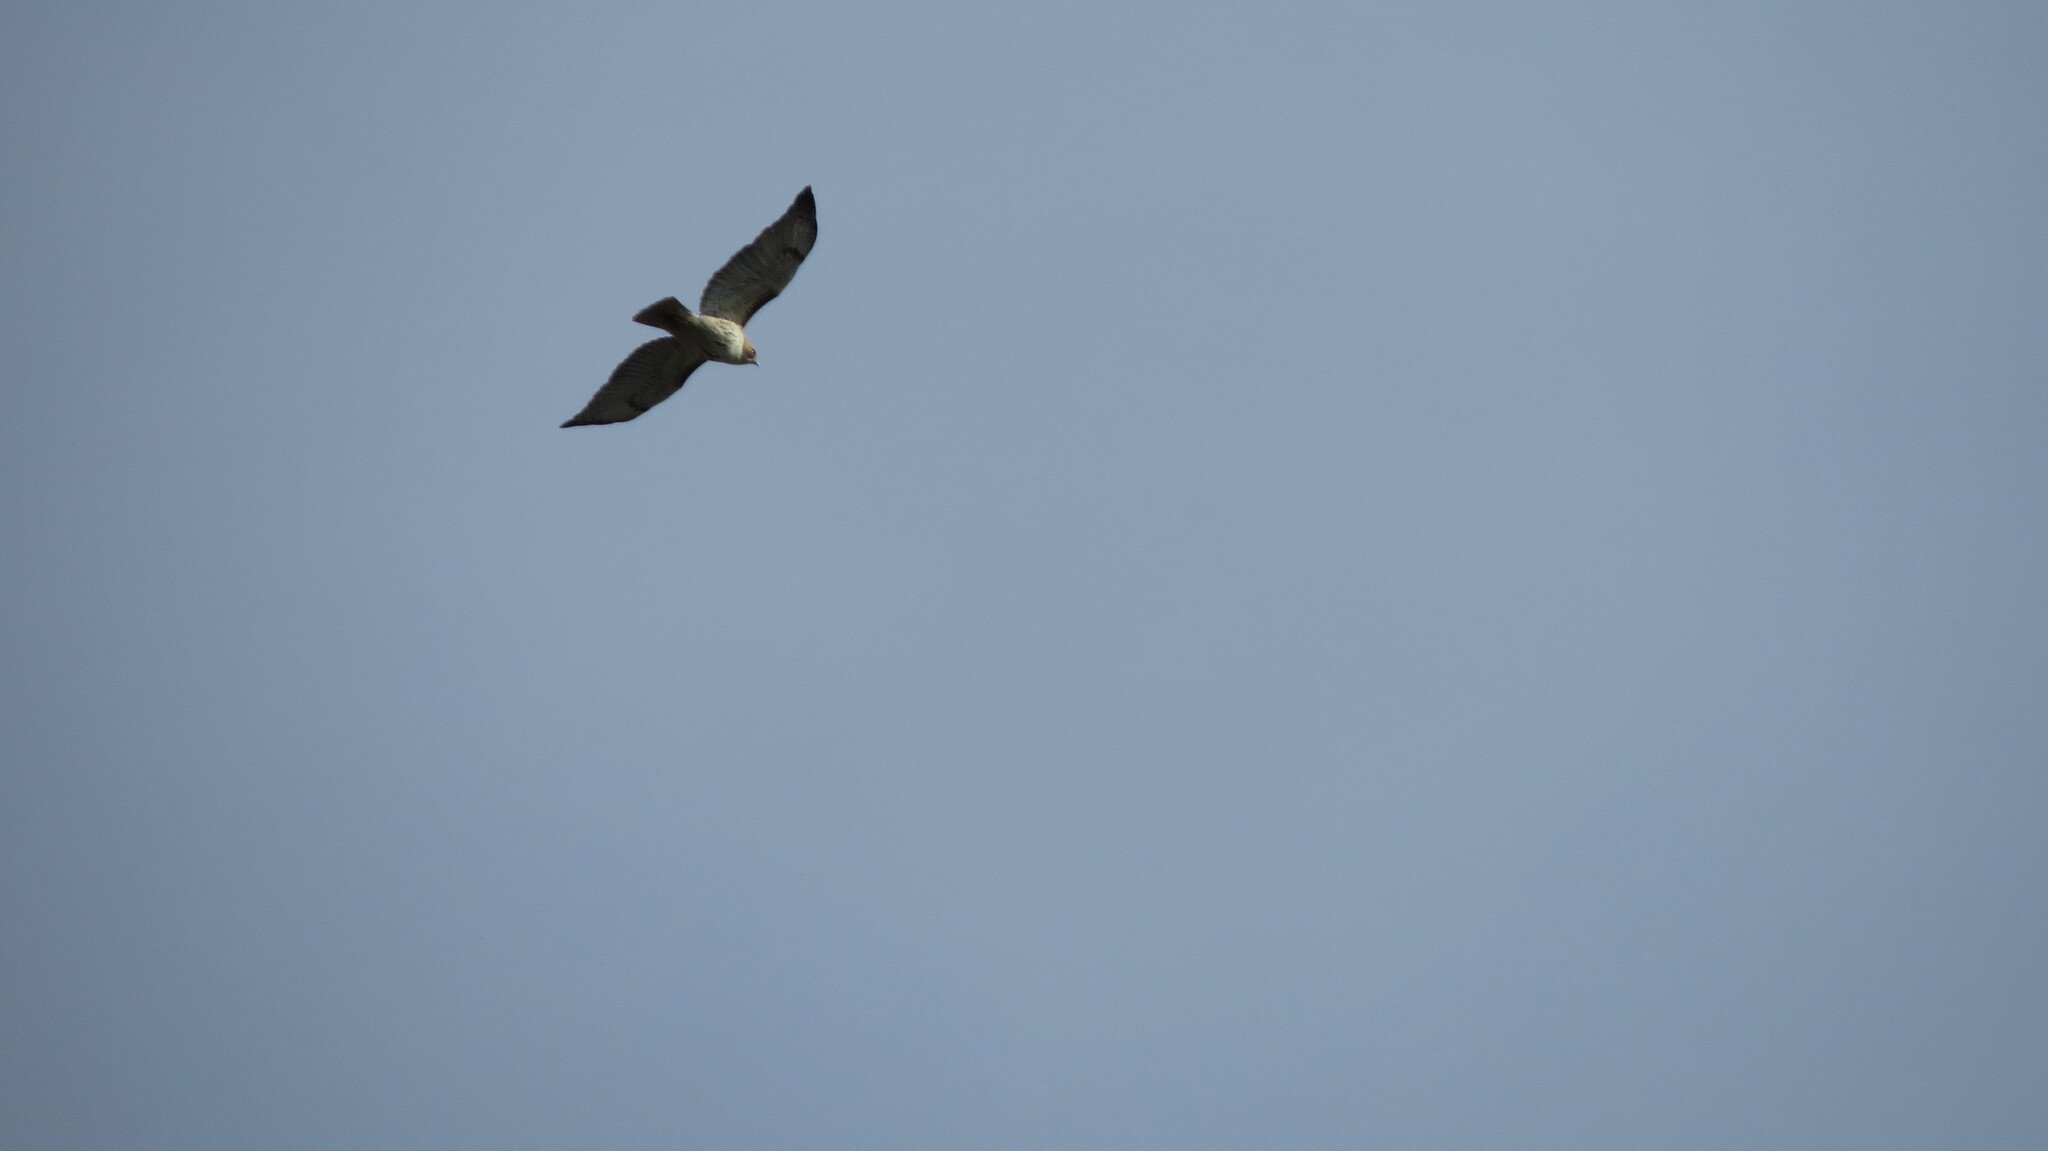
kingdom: Animalia
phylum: Chordata
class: Aves
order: Accipitriformes
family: Accipitridae
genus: Buteo
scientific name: Buteo jamaicensis
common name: Red-tailed hawk
